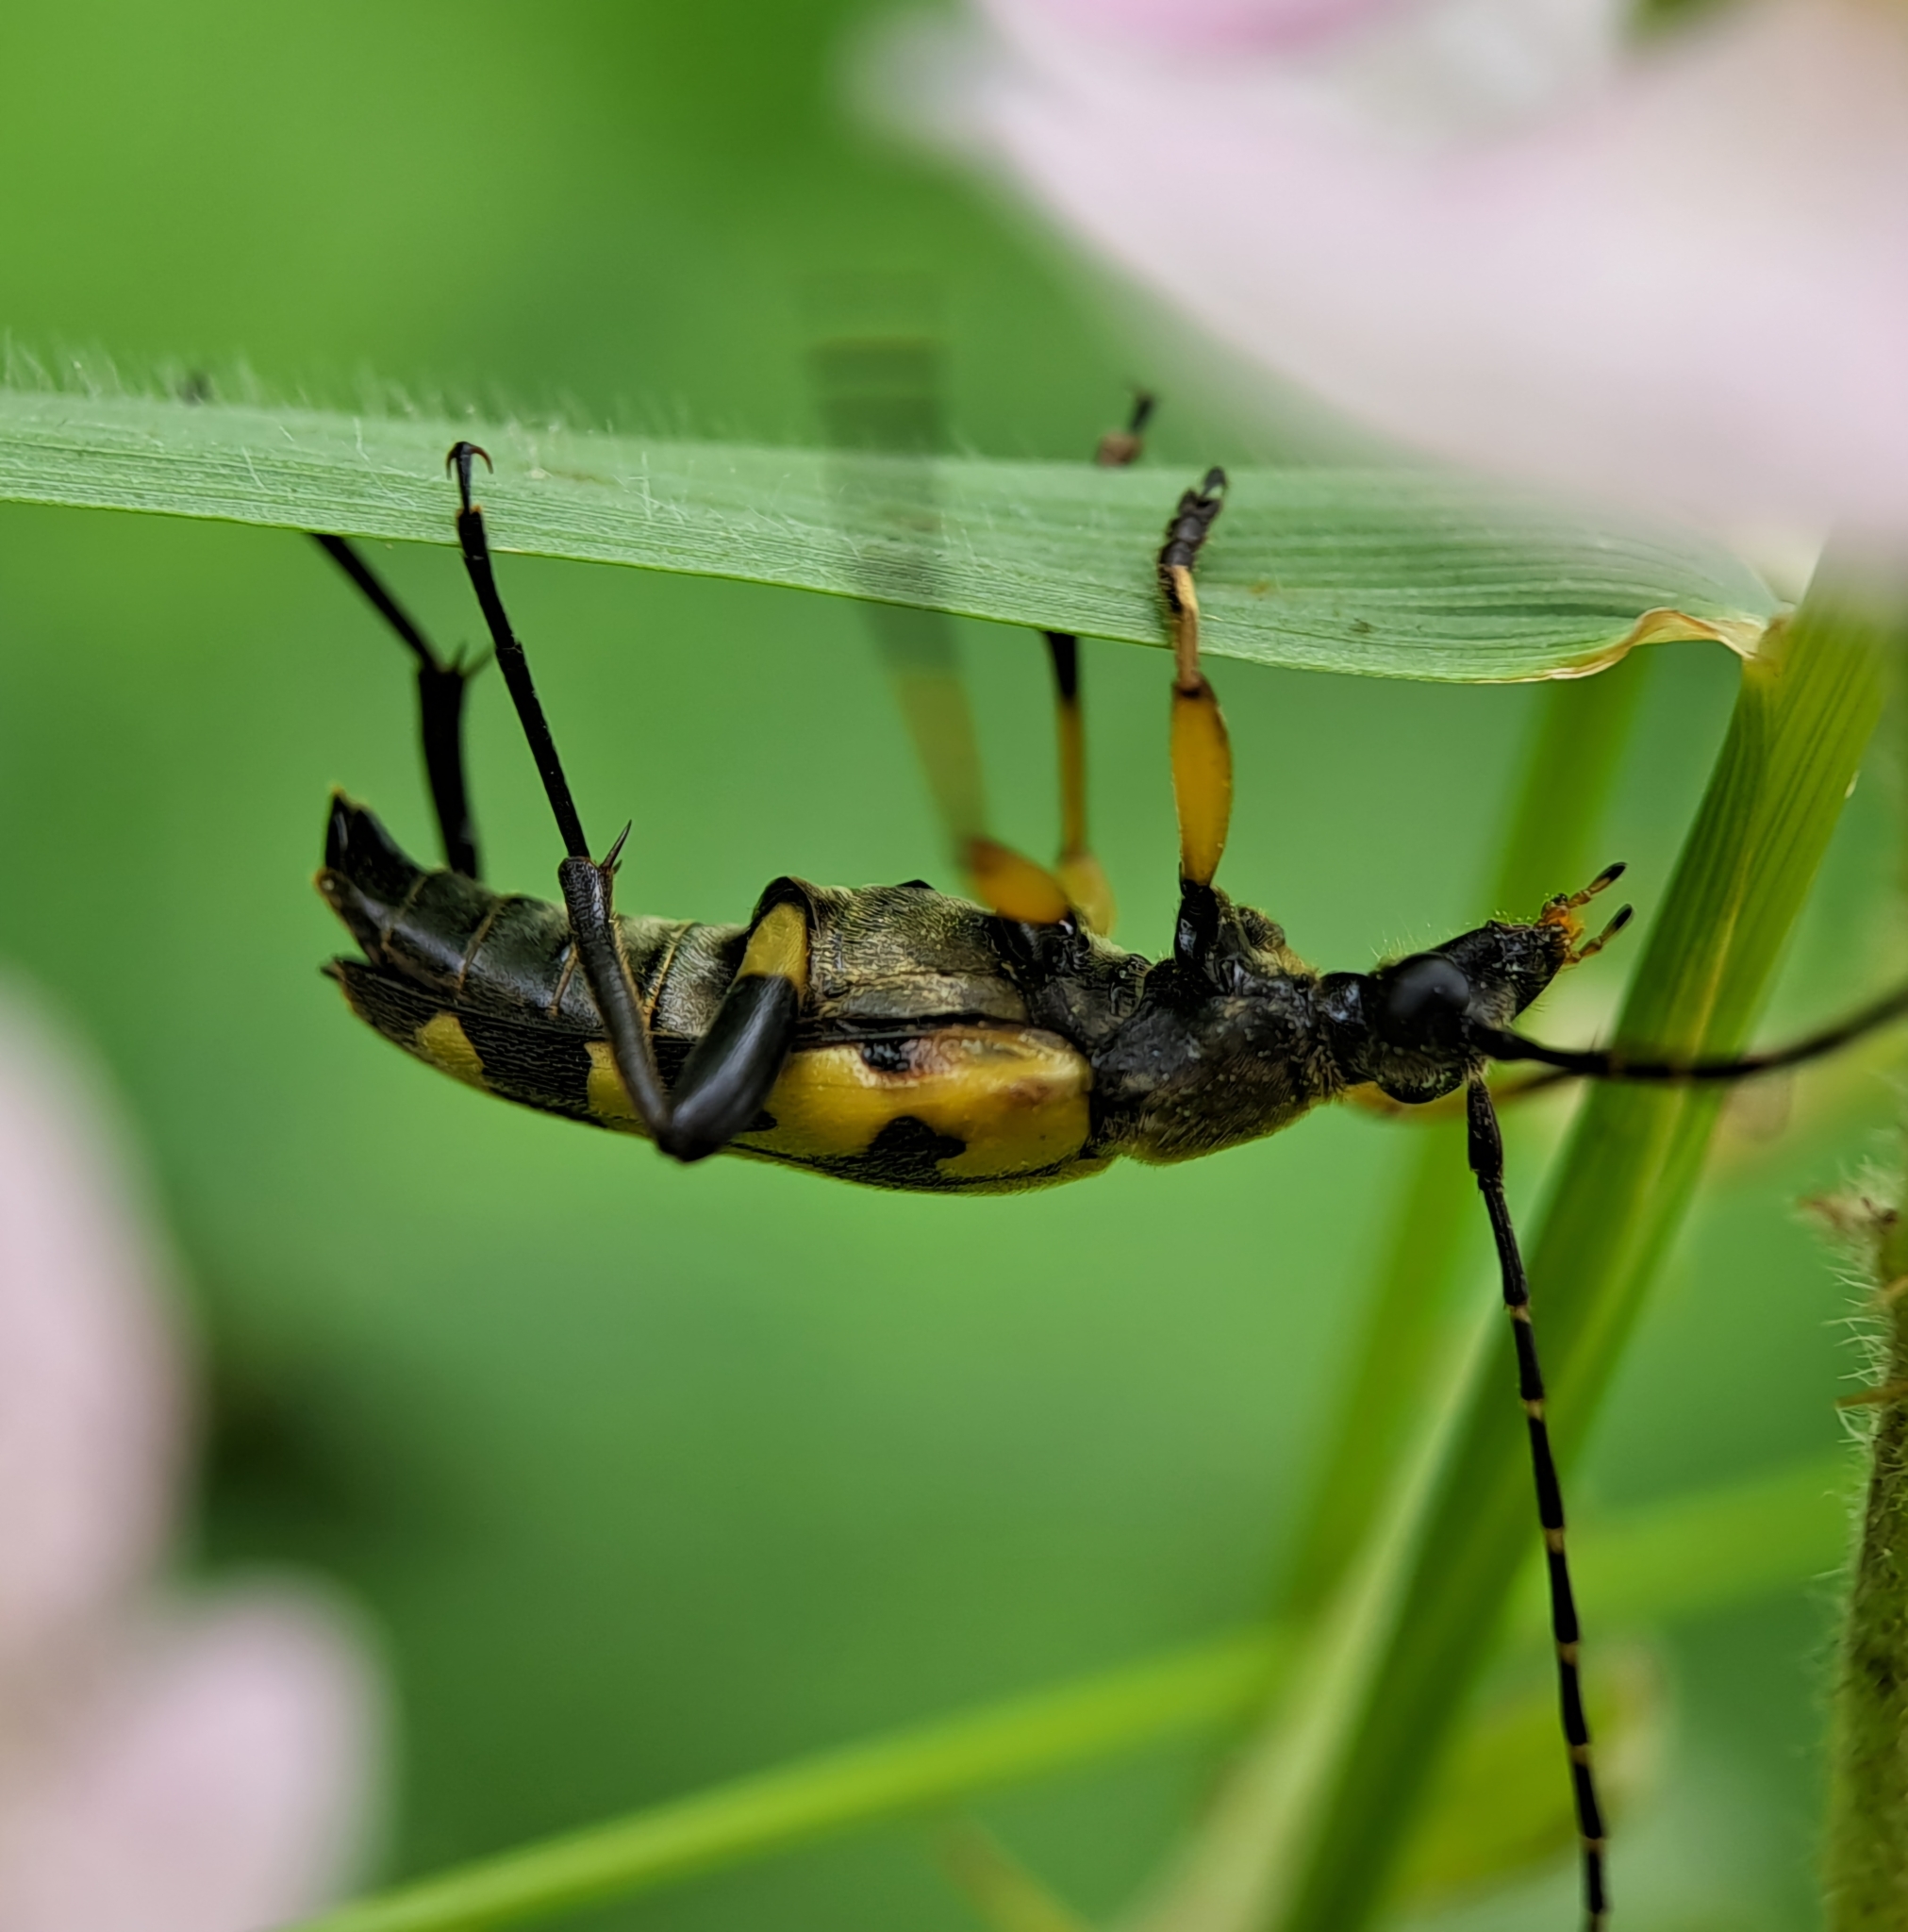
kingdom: Animalia
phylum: Arthropoda
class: Insecta
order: Coleoptera
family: Cerambycidae
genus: Rutpela
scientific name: Rutpela maculata
